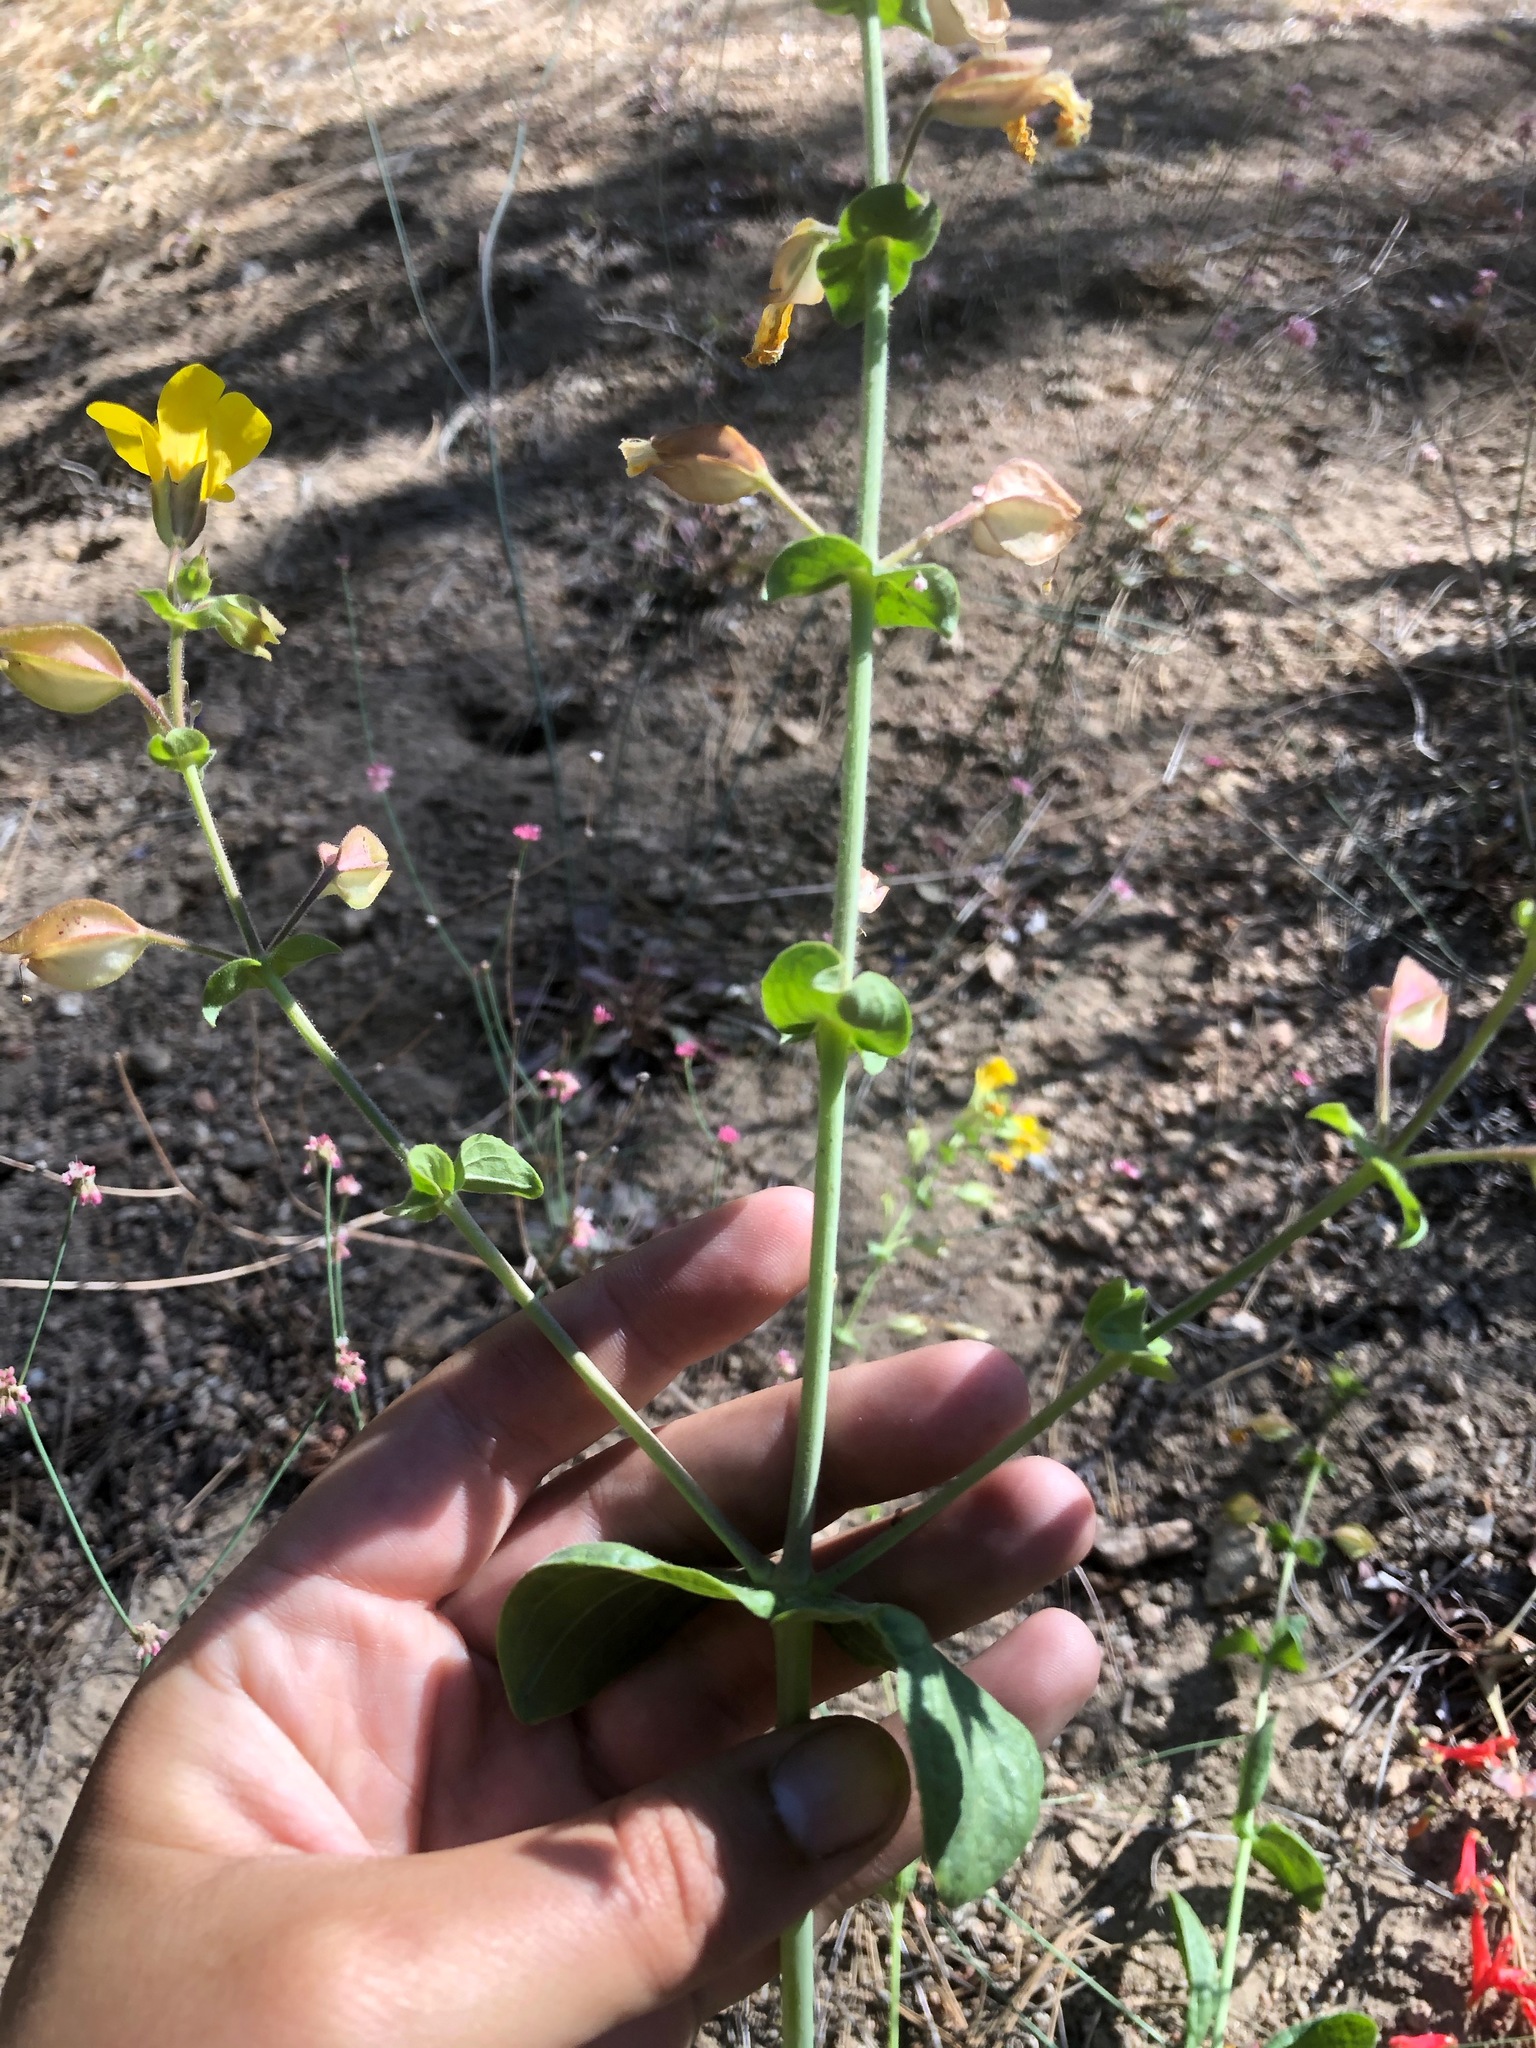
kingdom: Plantae
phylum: Tracheophyta
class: Magnoliopsida
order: Lamiales
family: Phrymaceae
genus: Erythranthe
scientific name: Erythranthe guttata
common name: Monkeyflower
